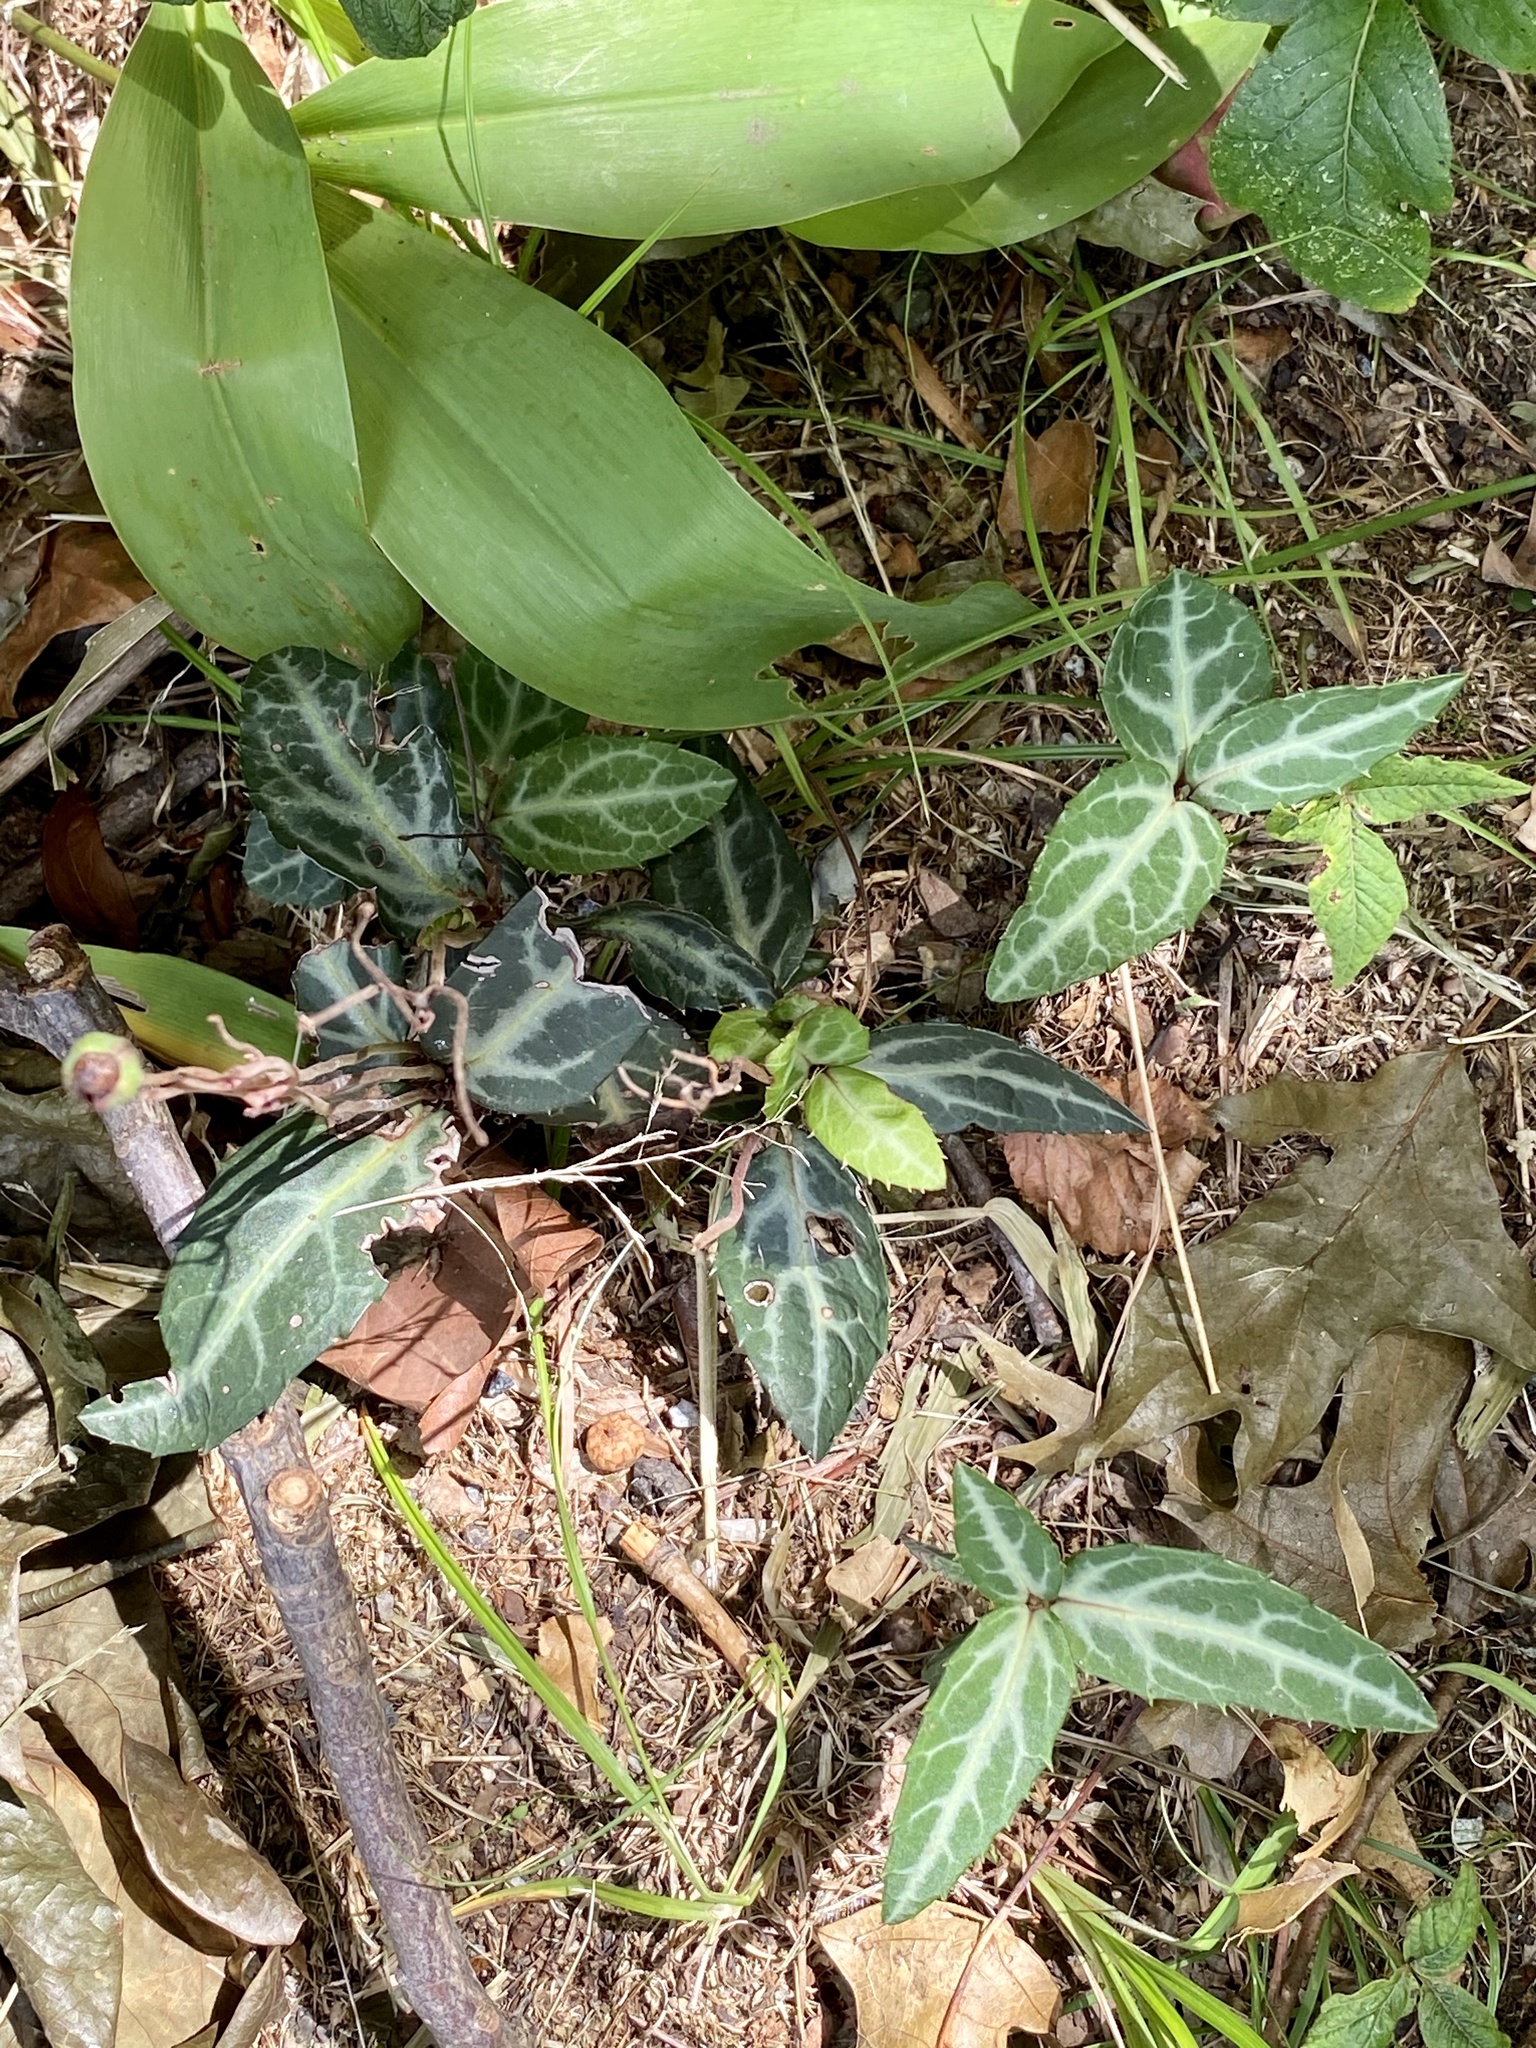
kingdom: Plantae
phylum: Tracheophyta
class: Magnoliopsida
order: Ericales
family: Ericaceae
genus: Chimaphila
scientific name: Chimaphila maculata
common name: Spotted pipsissewa
